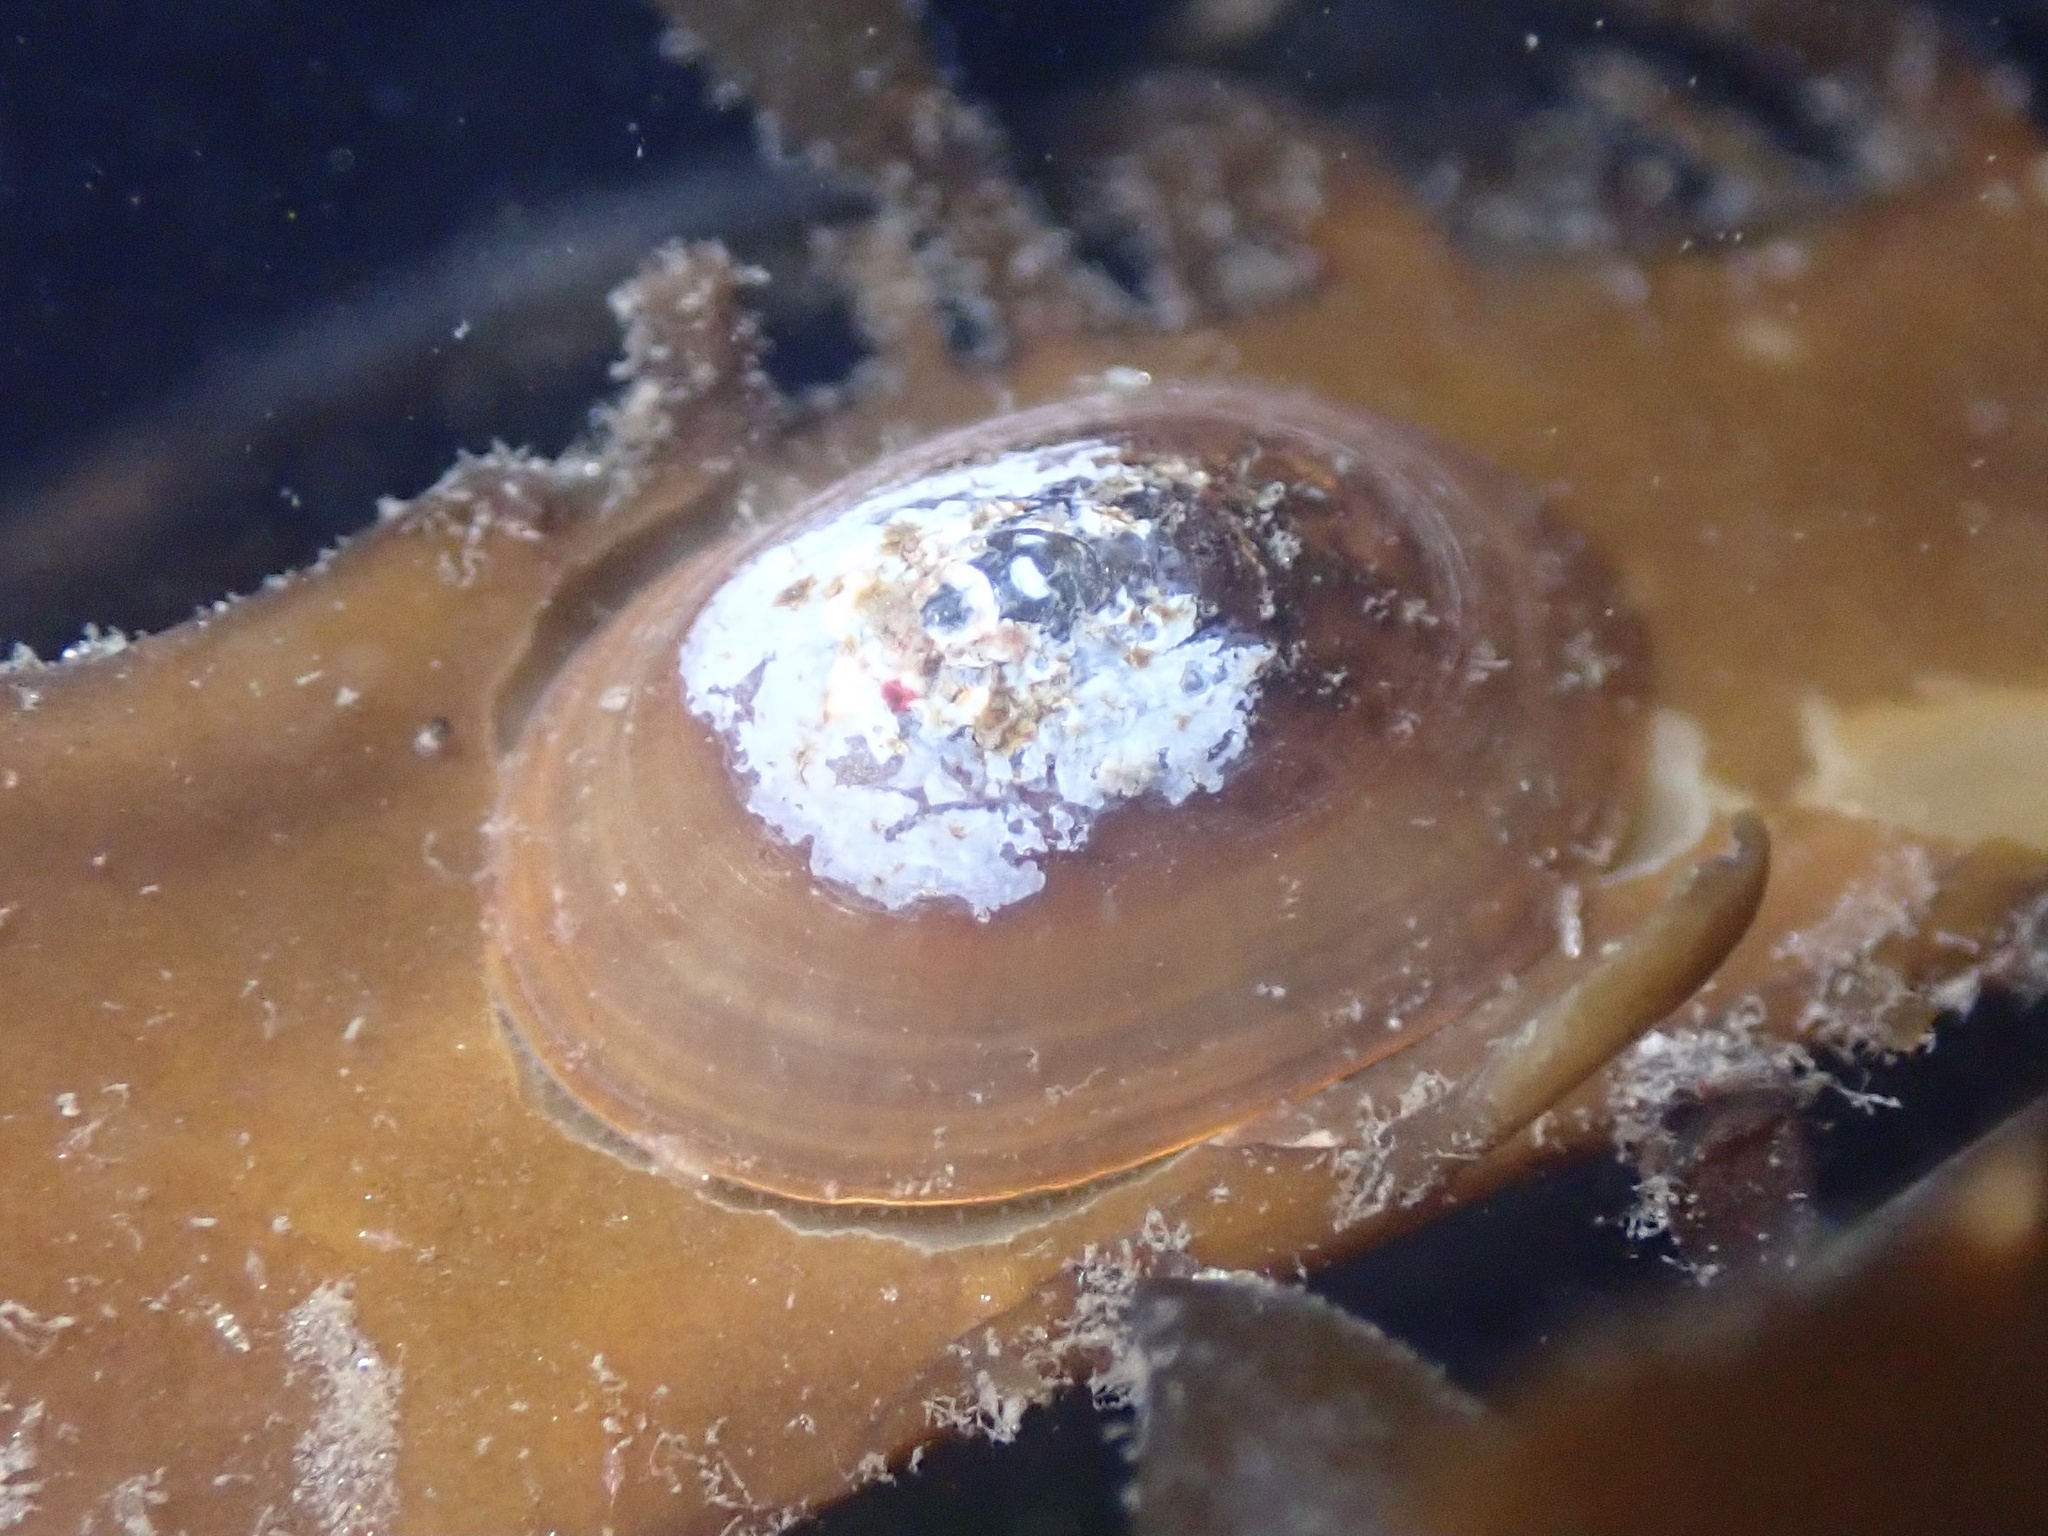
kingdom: Animalia
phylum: Mollusca
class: Gastropoda
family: Lottiidae
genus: Discurria
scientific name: Discurria insessa
